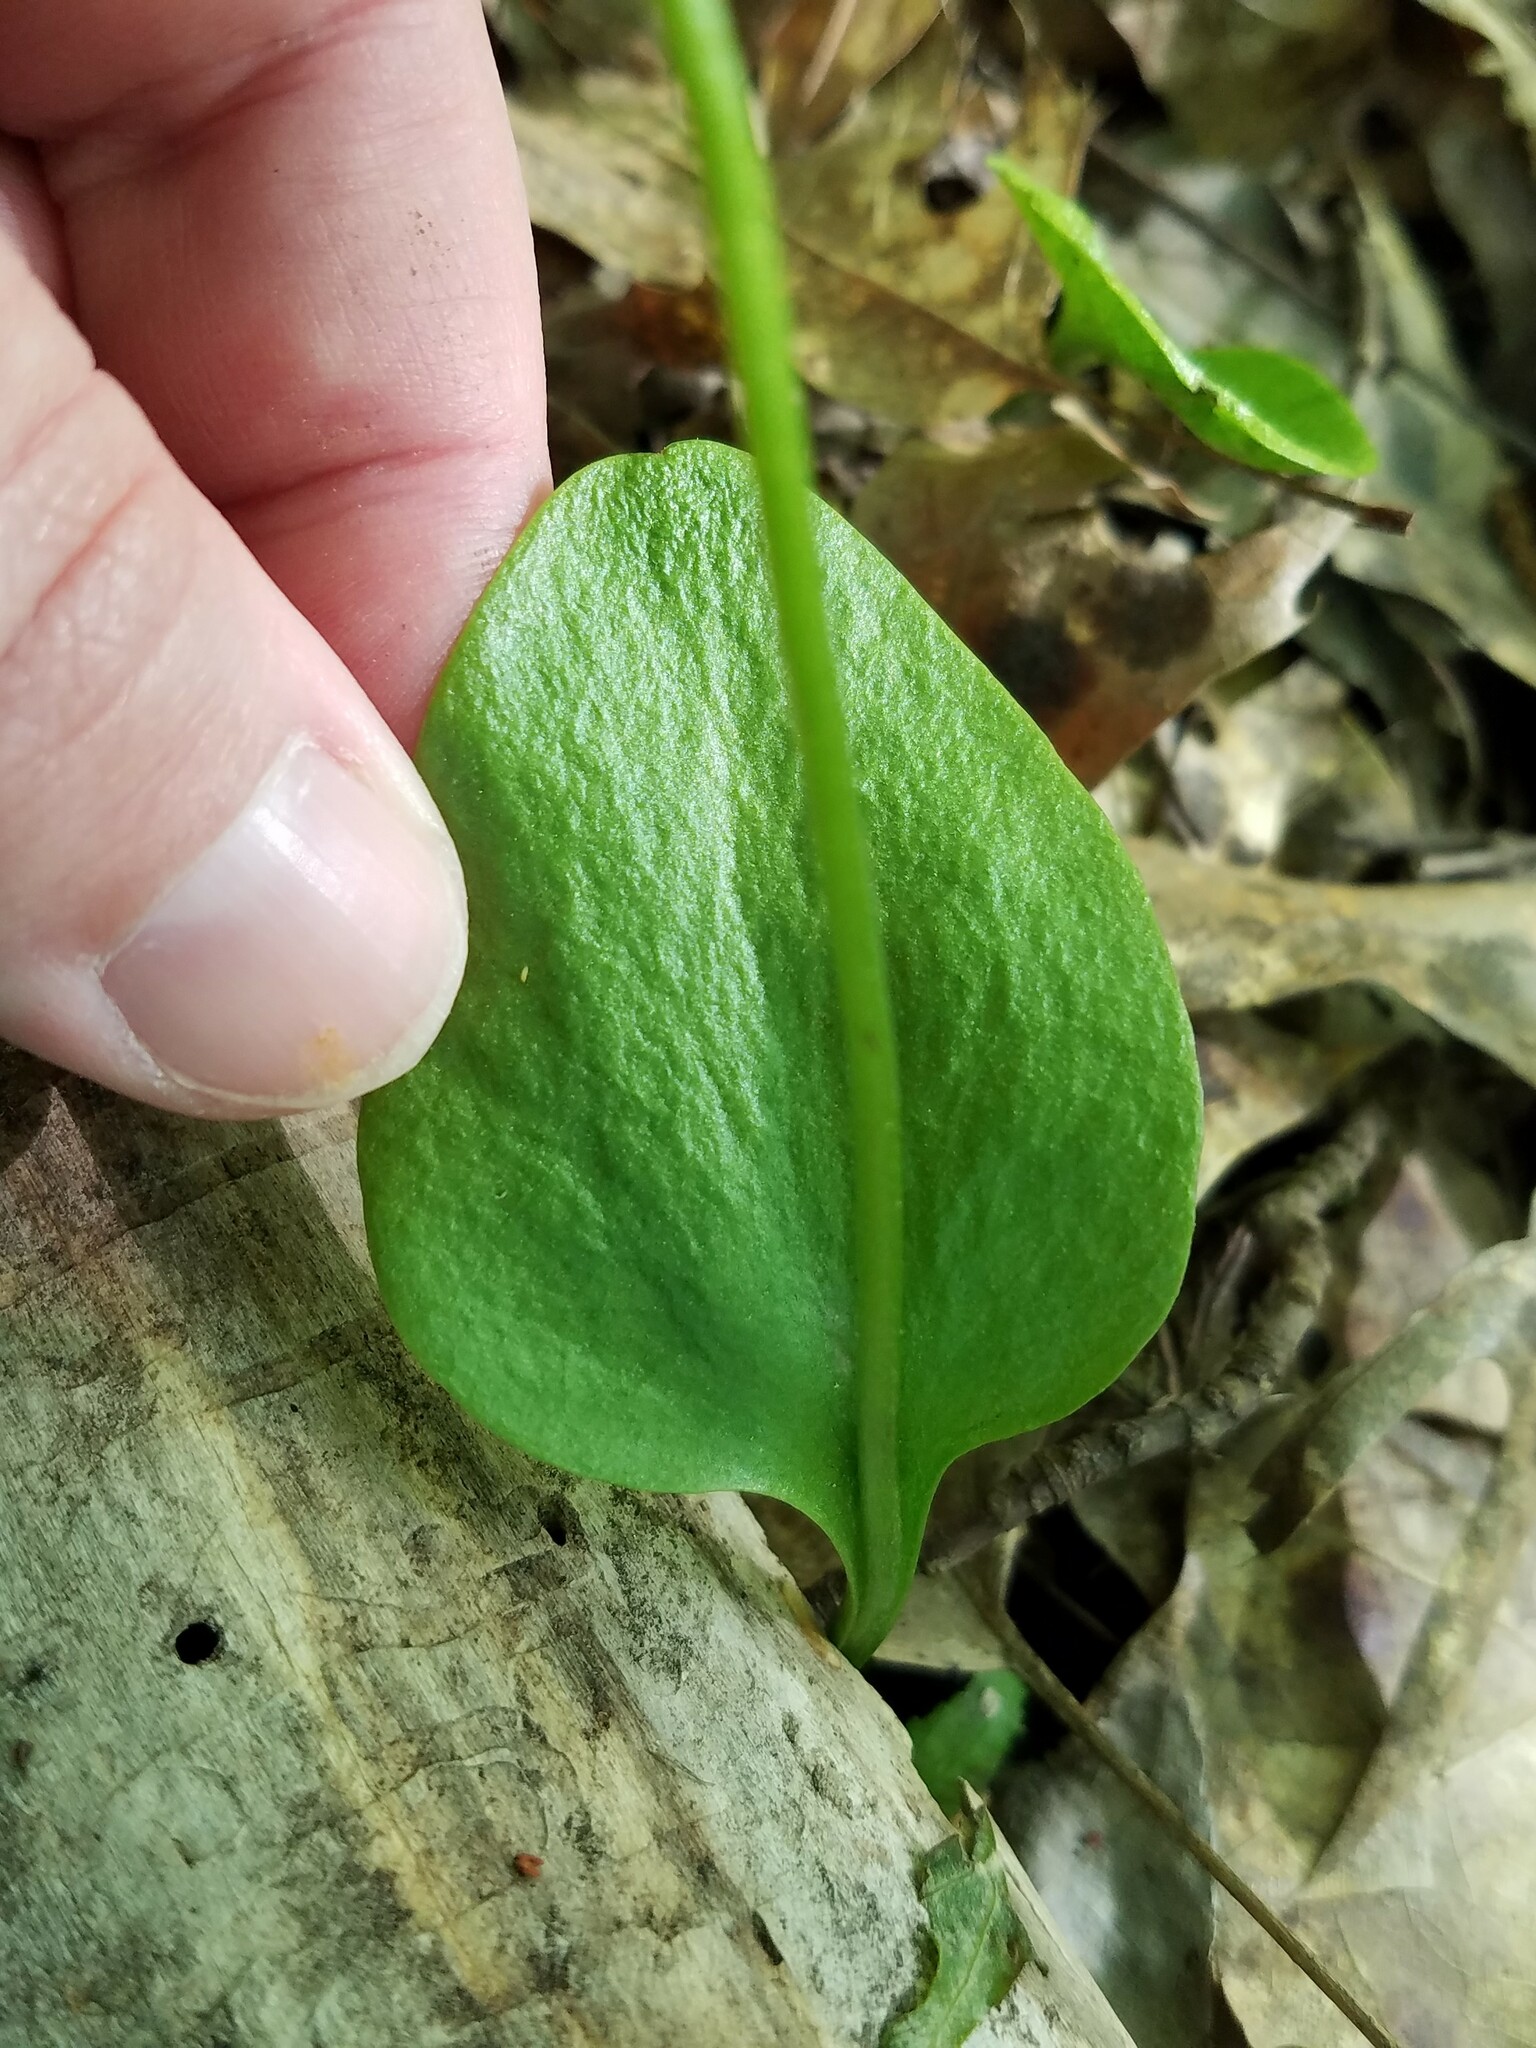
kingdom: Plantae
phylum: Tracheophyta
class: Polypodiopsida
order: Ophioglossales
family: Ophioglossaceae
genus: Ophioglossum
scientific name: Ophioglossum vulgatum
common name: Adder's-tongue
